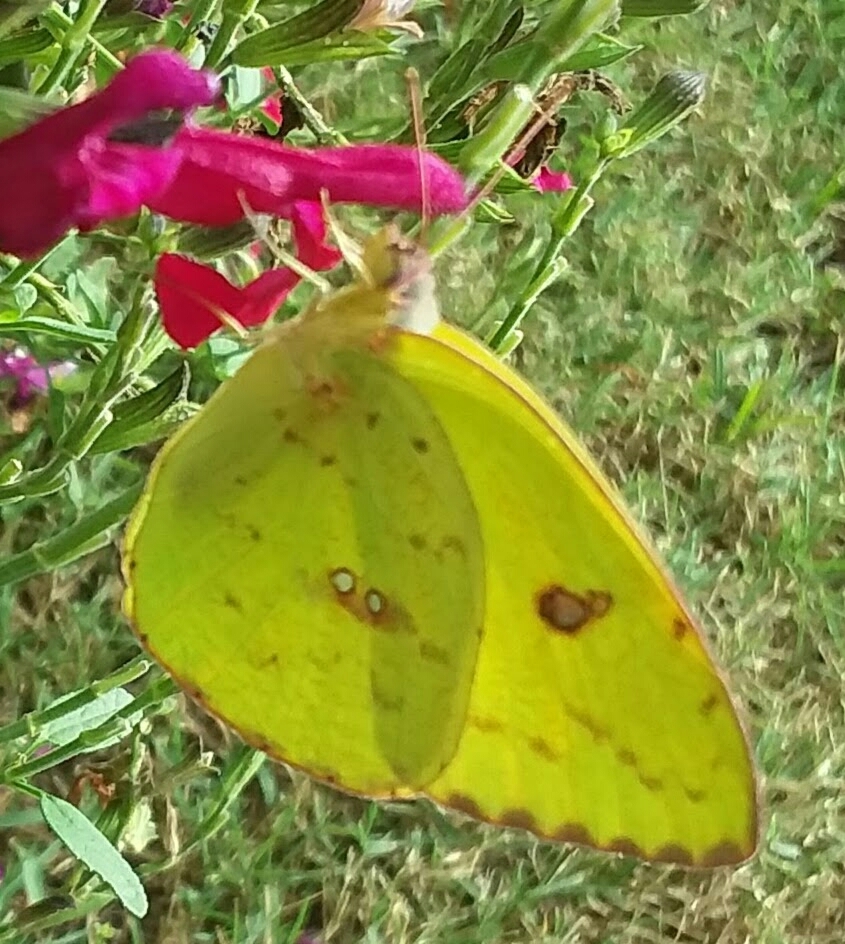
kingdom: Animalia
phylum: Arthropoda
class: Insecta
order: Lepidoptera
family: Pieridae
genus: Phoebis
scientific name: Phoebis sennae
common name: Cloudless sulphur
